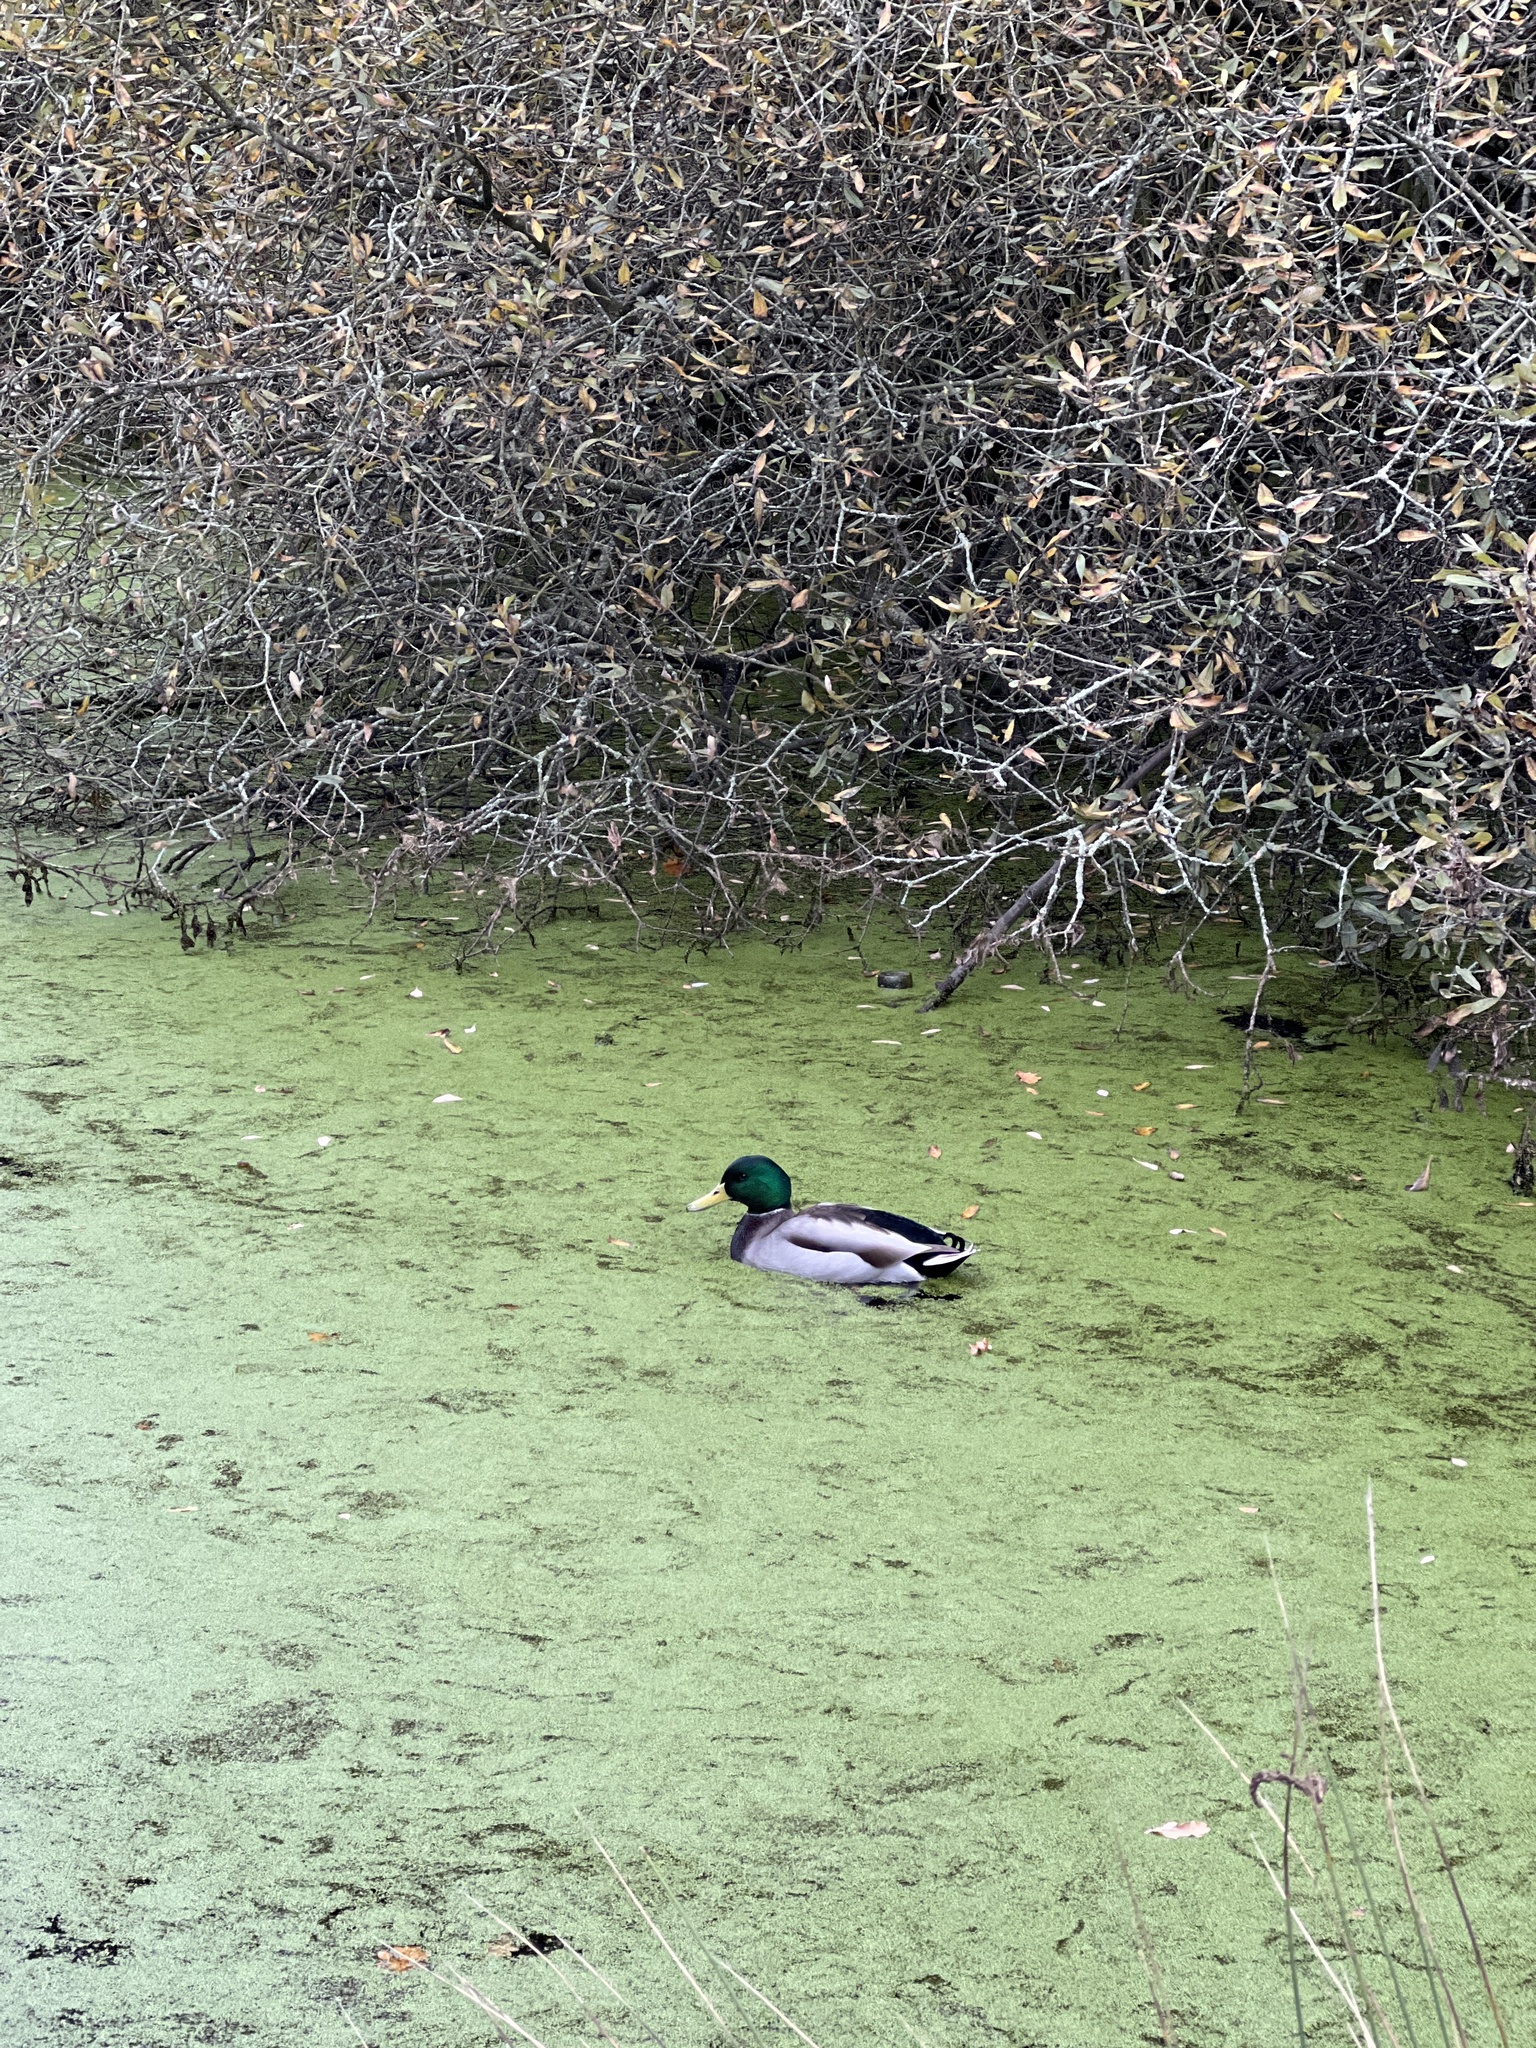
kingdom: Animalia
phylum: Chordata
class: Aves
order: Anseriformes
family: Anatidae
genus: Anas
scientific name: Anas platyrhynchos
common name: Mallard
